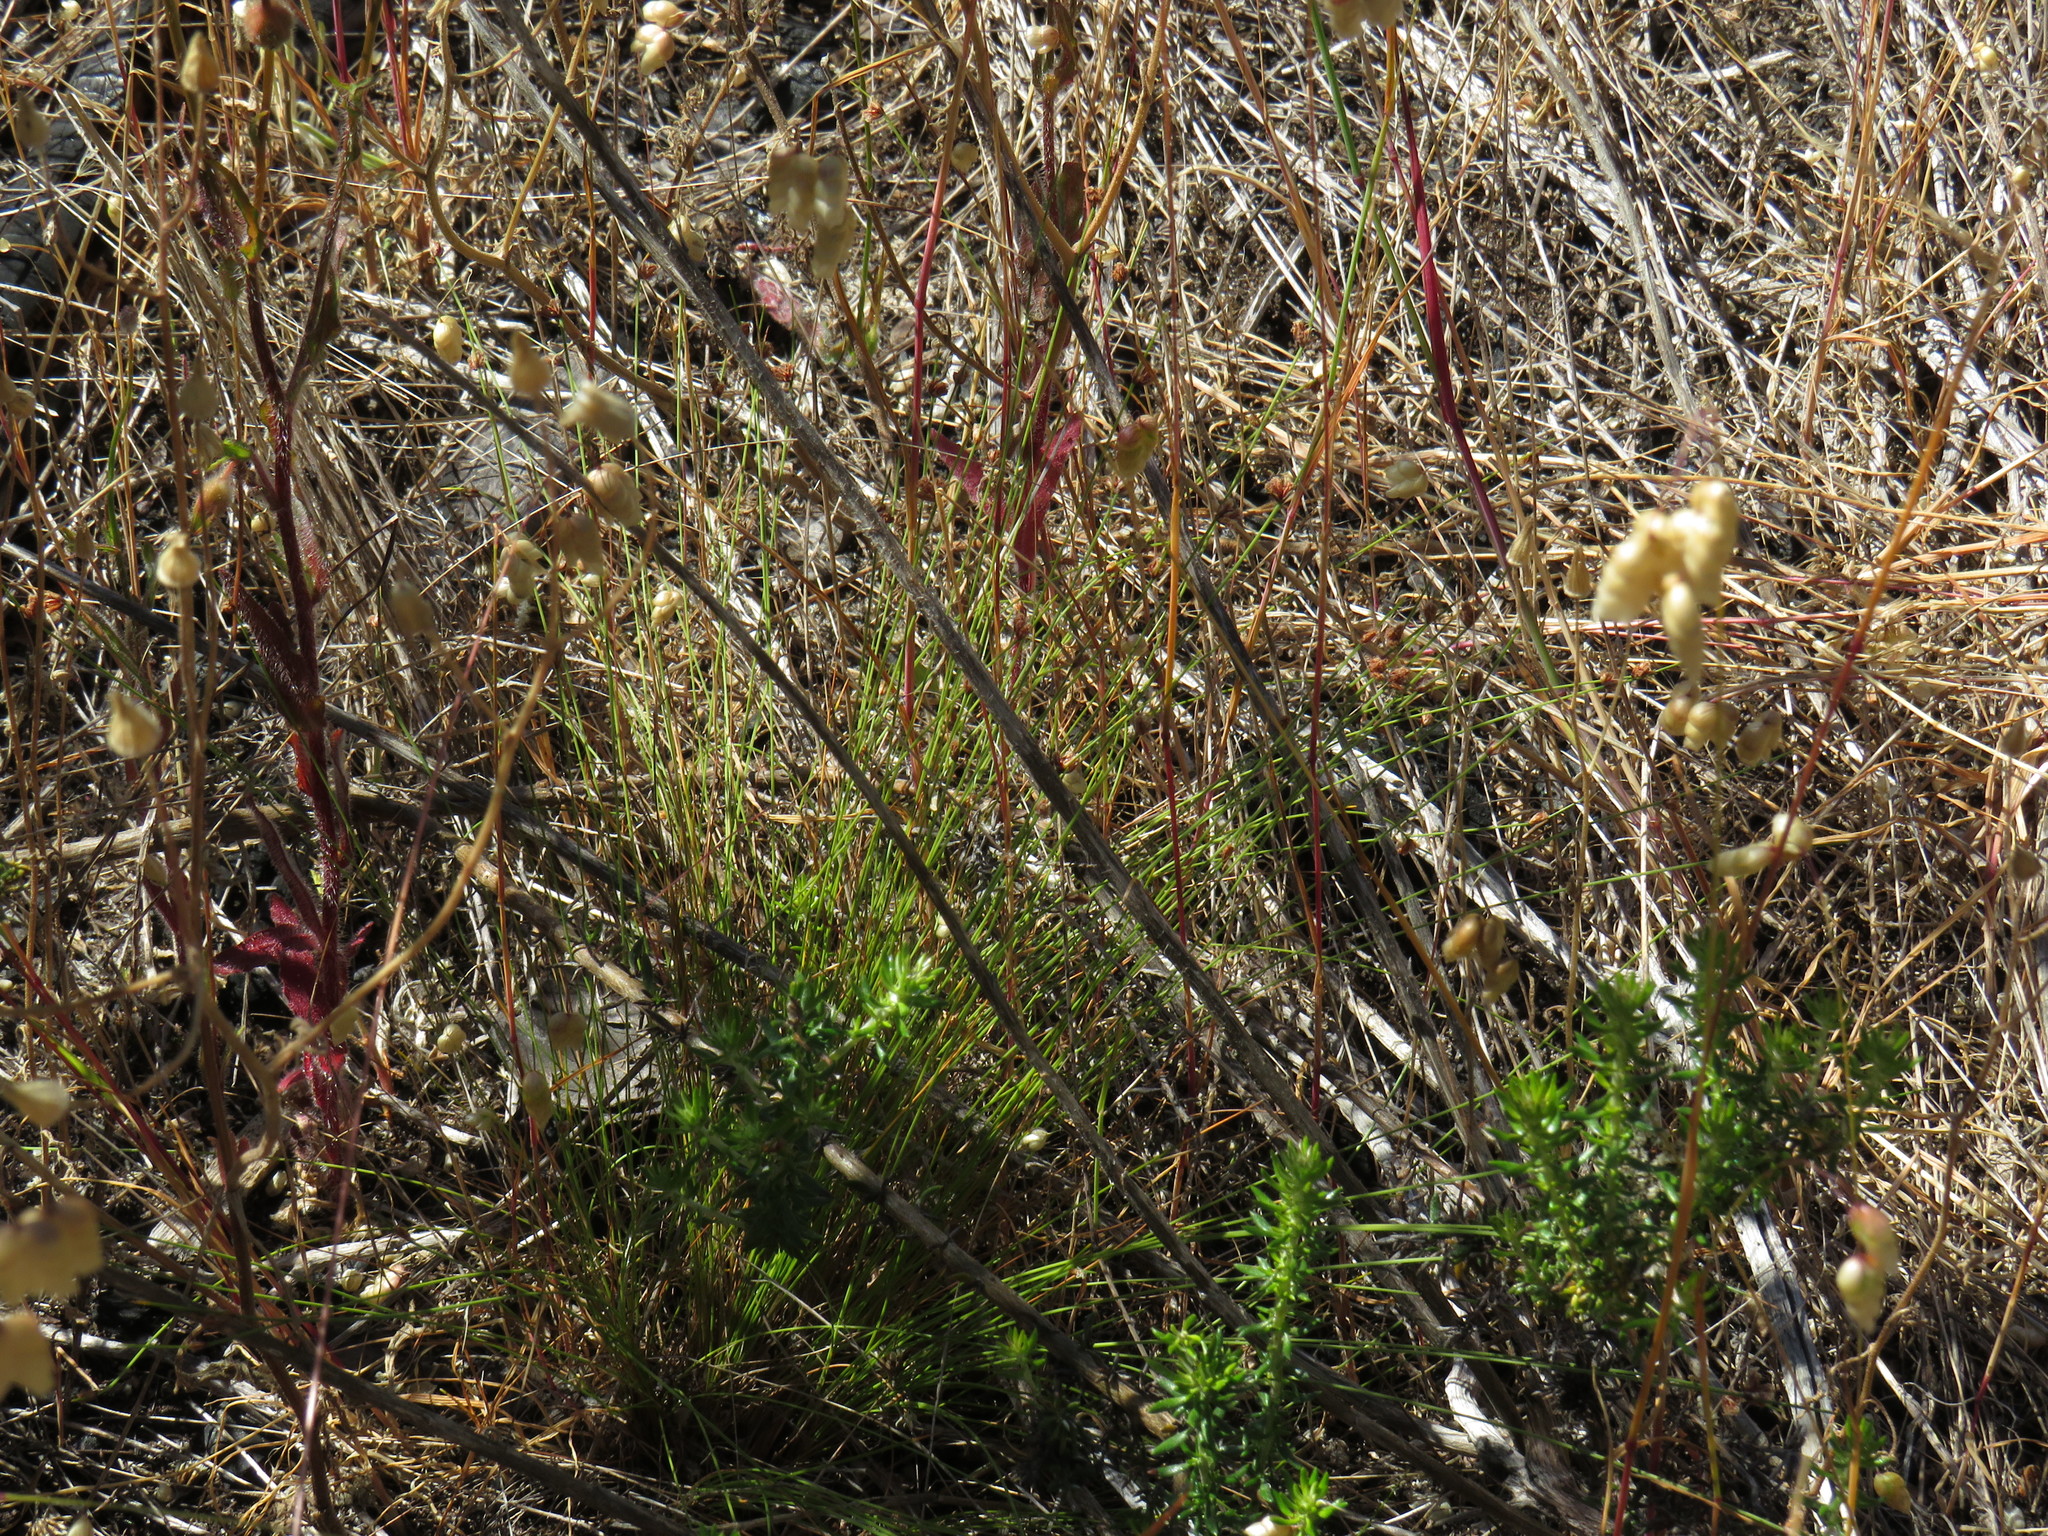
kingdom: Plantae
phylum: Tracheophyta
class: Liliopsida
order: Poales
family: Cyperaceae
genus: Ficinia
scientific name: Ficinia filiformis
